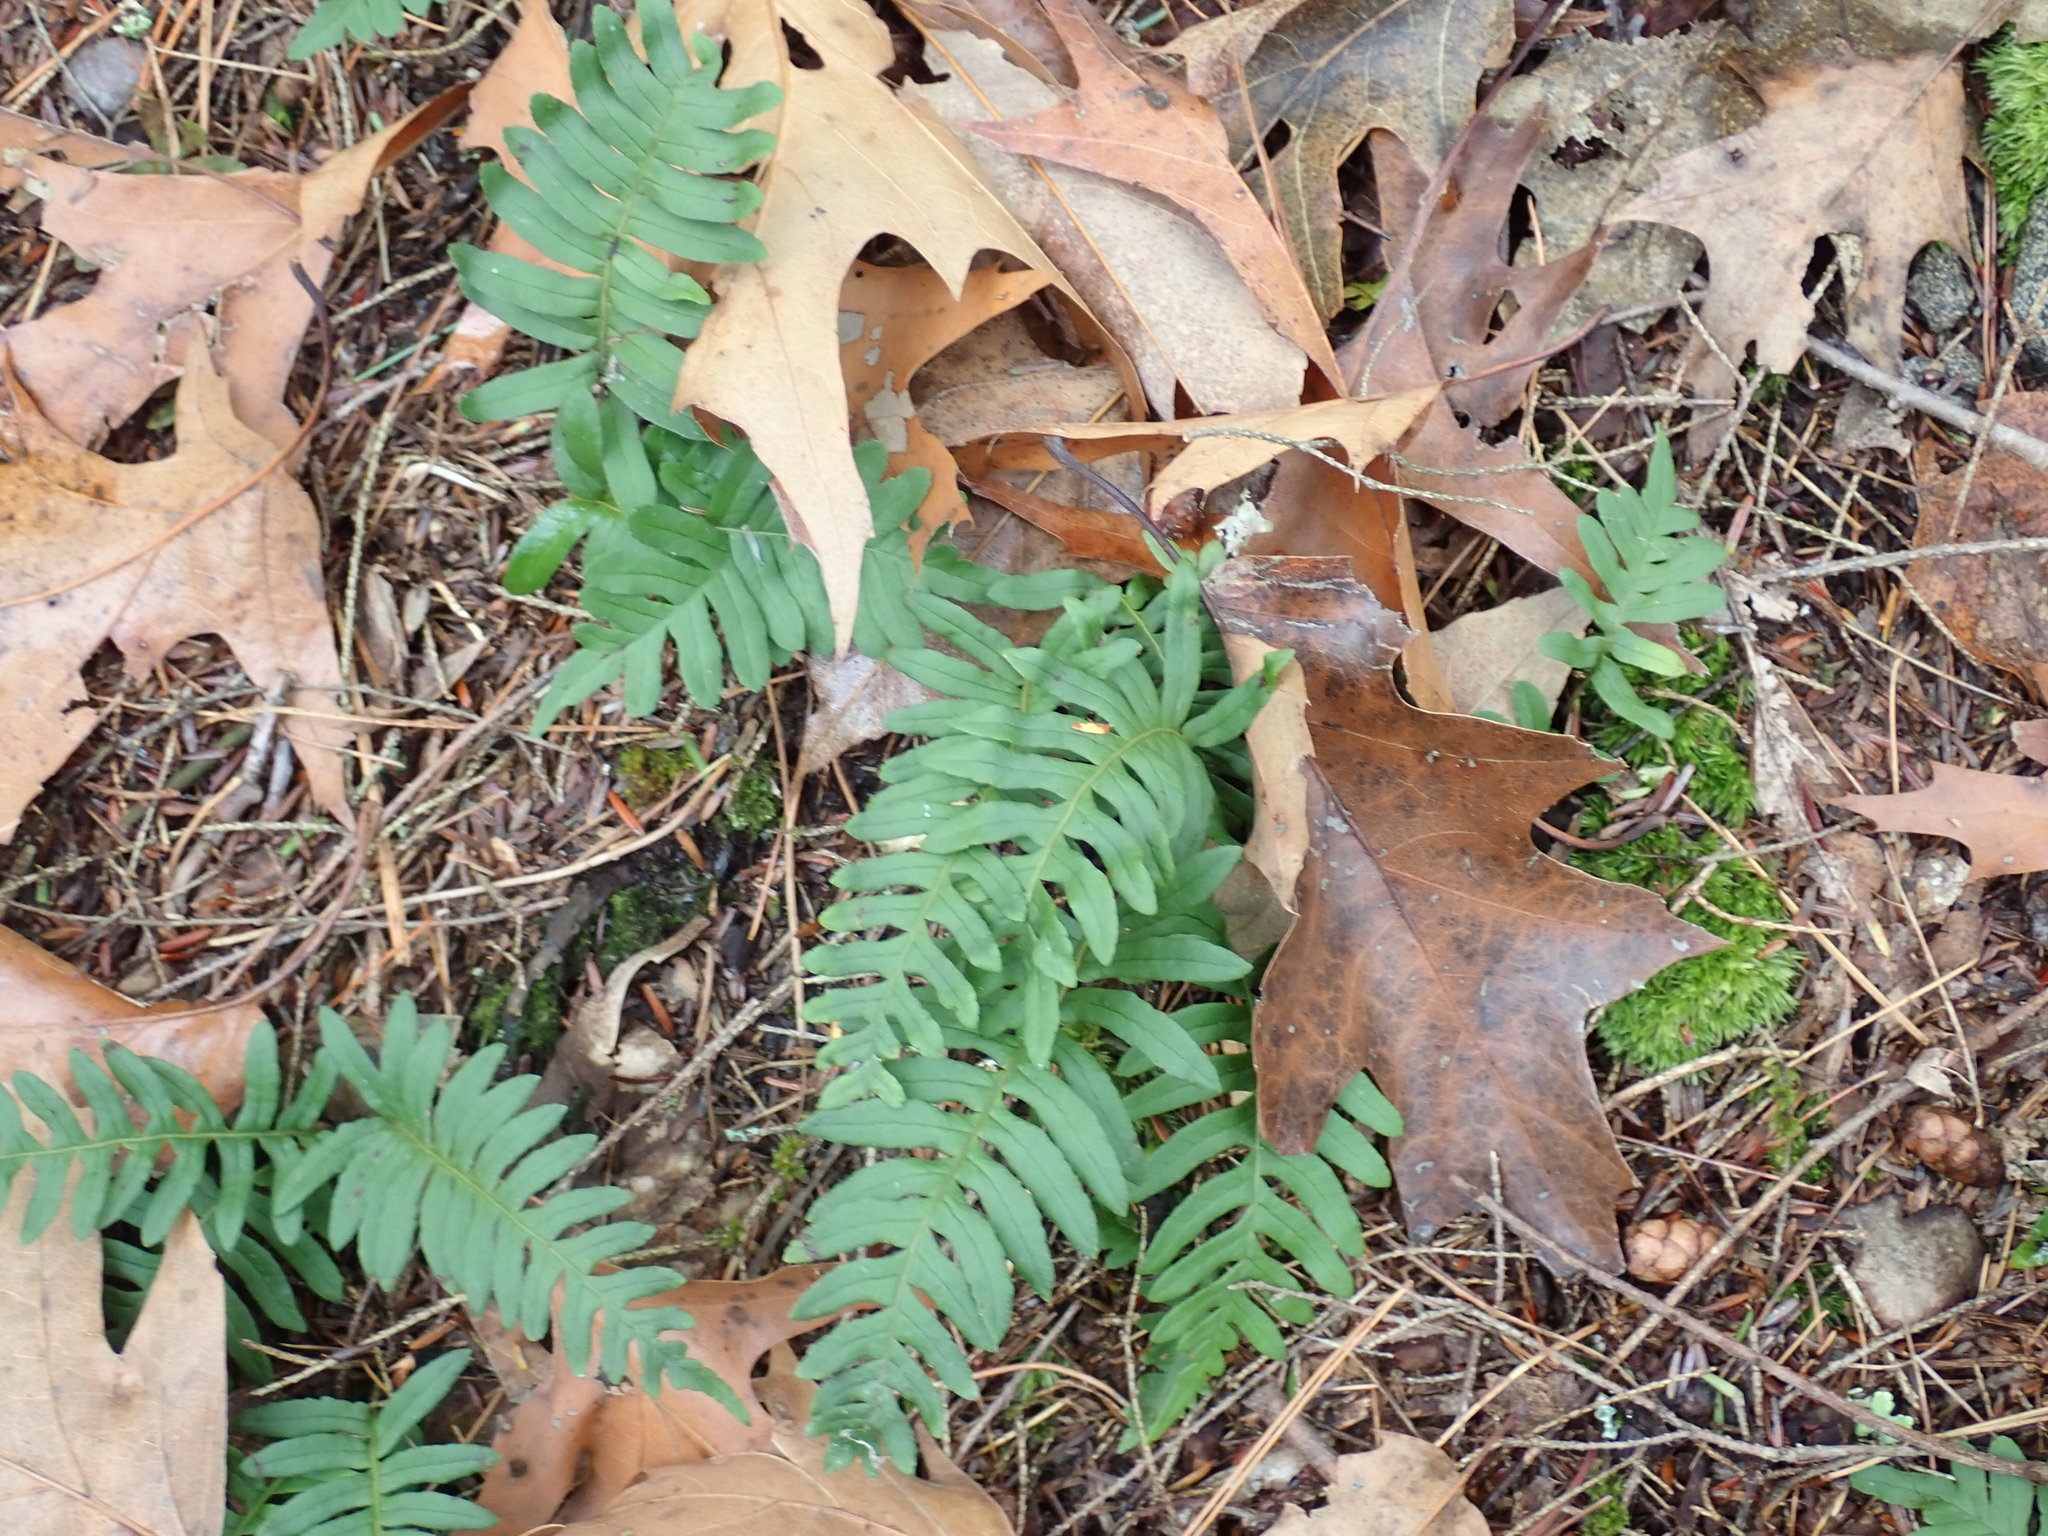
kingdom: Plantae
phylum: Tracheophyta
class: Polypodiopsida
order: Polypodiales
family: Polypodiaceae
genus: Polypodium
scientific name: Polypodium
